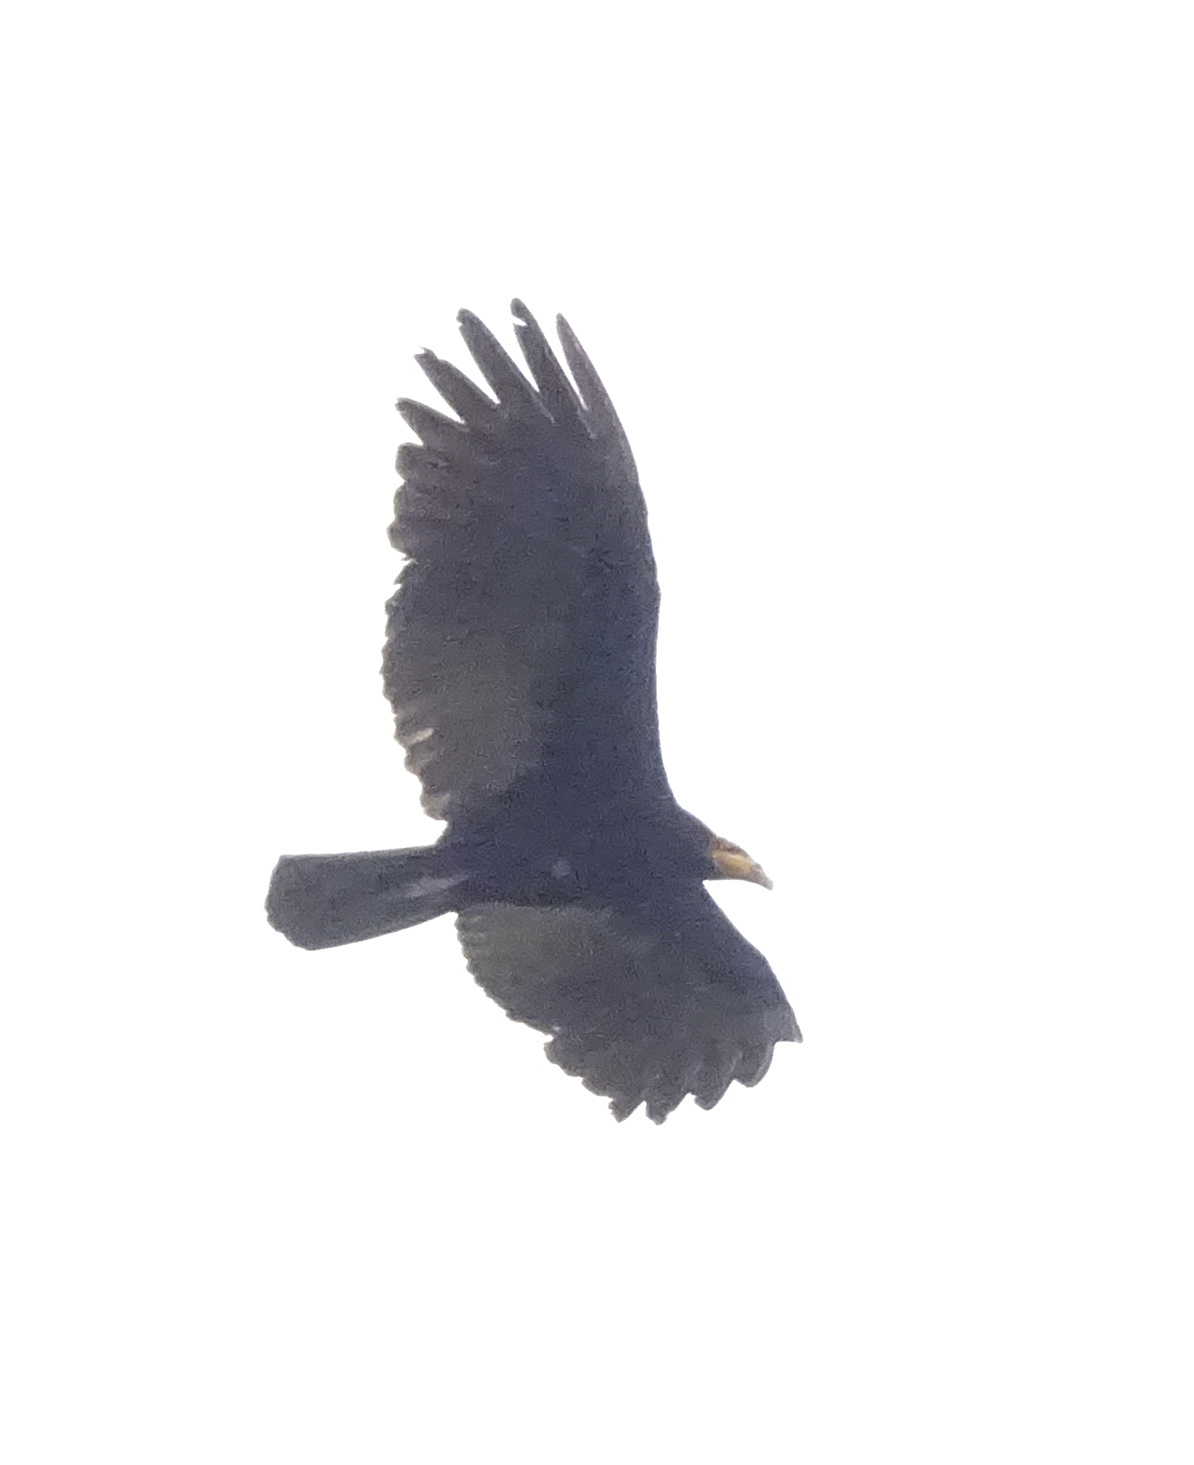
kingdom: Animalia
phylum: Chordata
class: Aves
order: Accipitriformes
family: Cathartidae
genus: Cathartes
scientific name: Cathartes melambrotus
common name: Greater yellow-headed vulture
